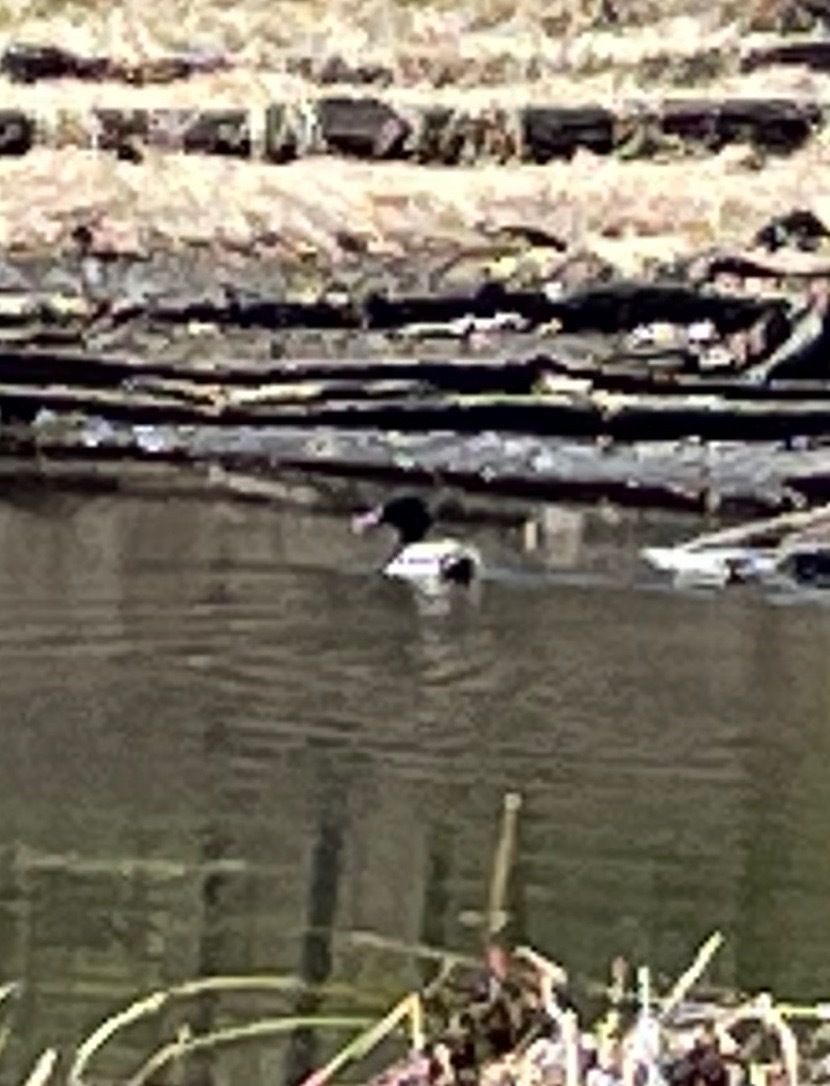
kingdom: Animalia
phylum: Chordata
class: Aves
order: Anseriformes
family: Anatidae
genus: Anas
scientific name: Anas platyrhynchos
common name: Mallard
